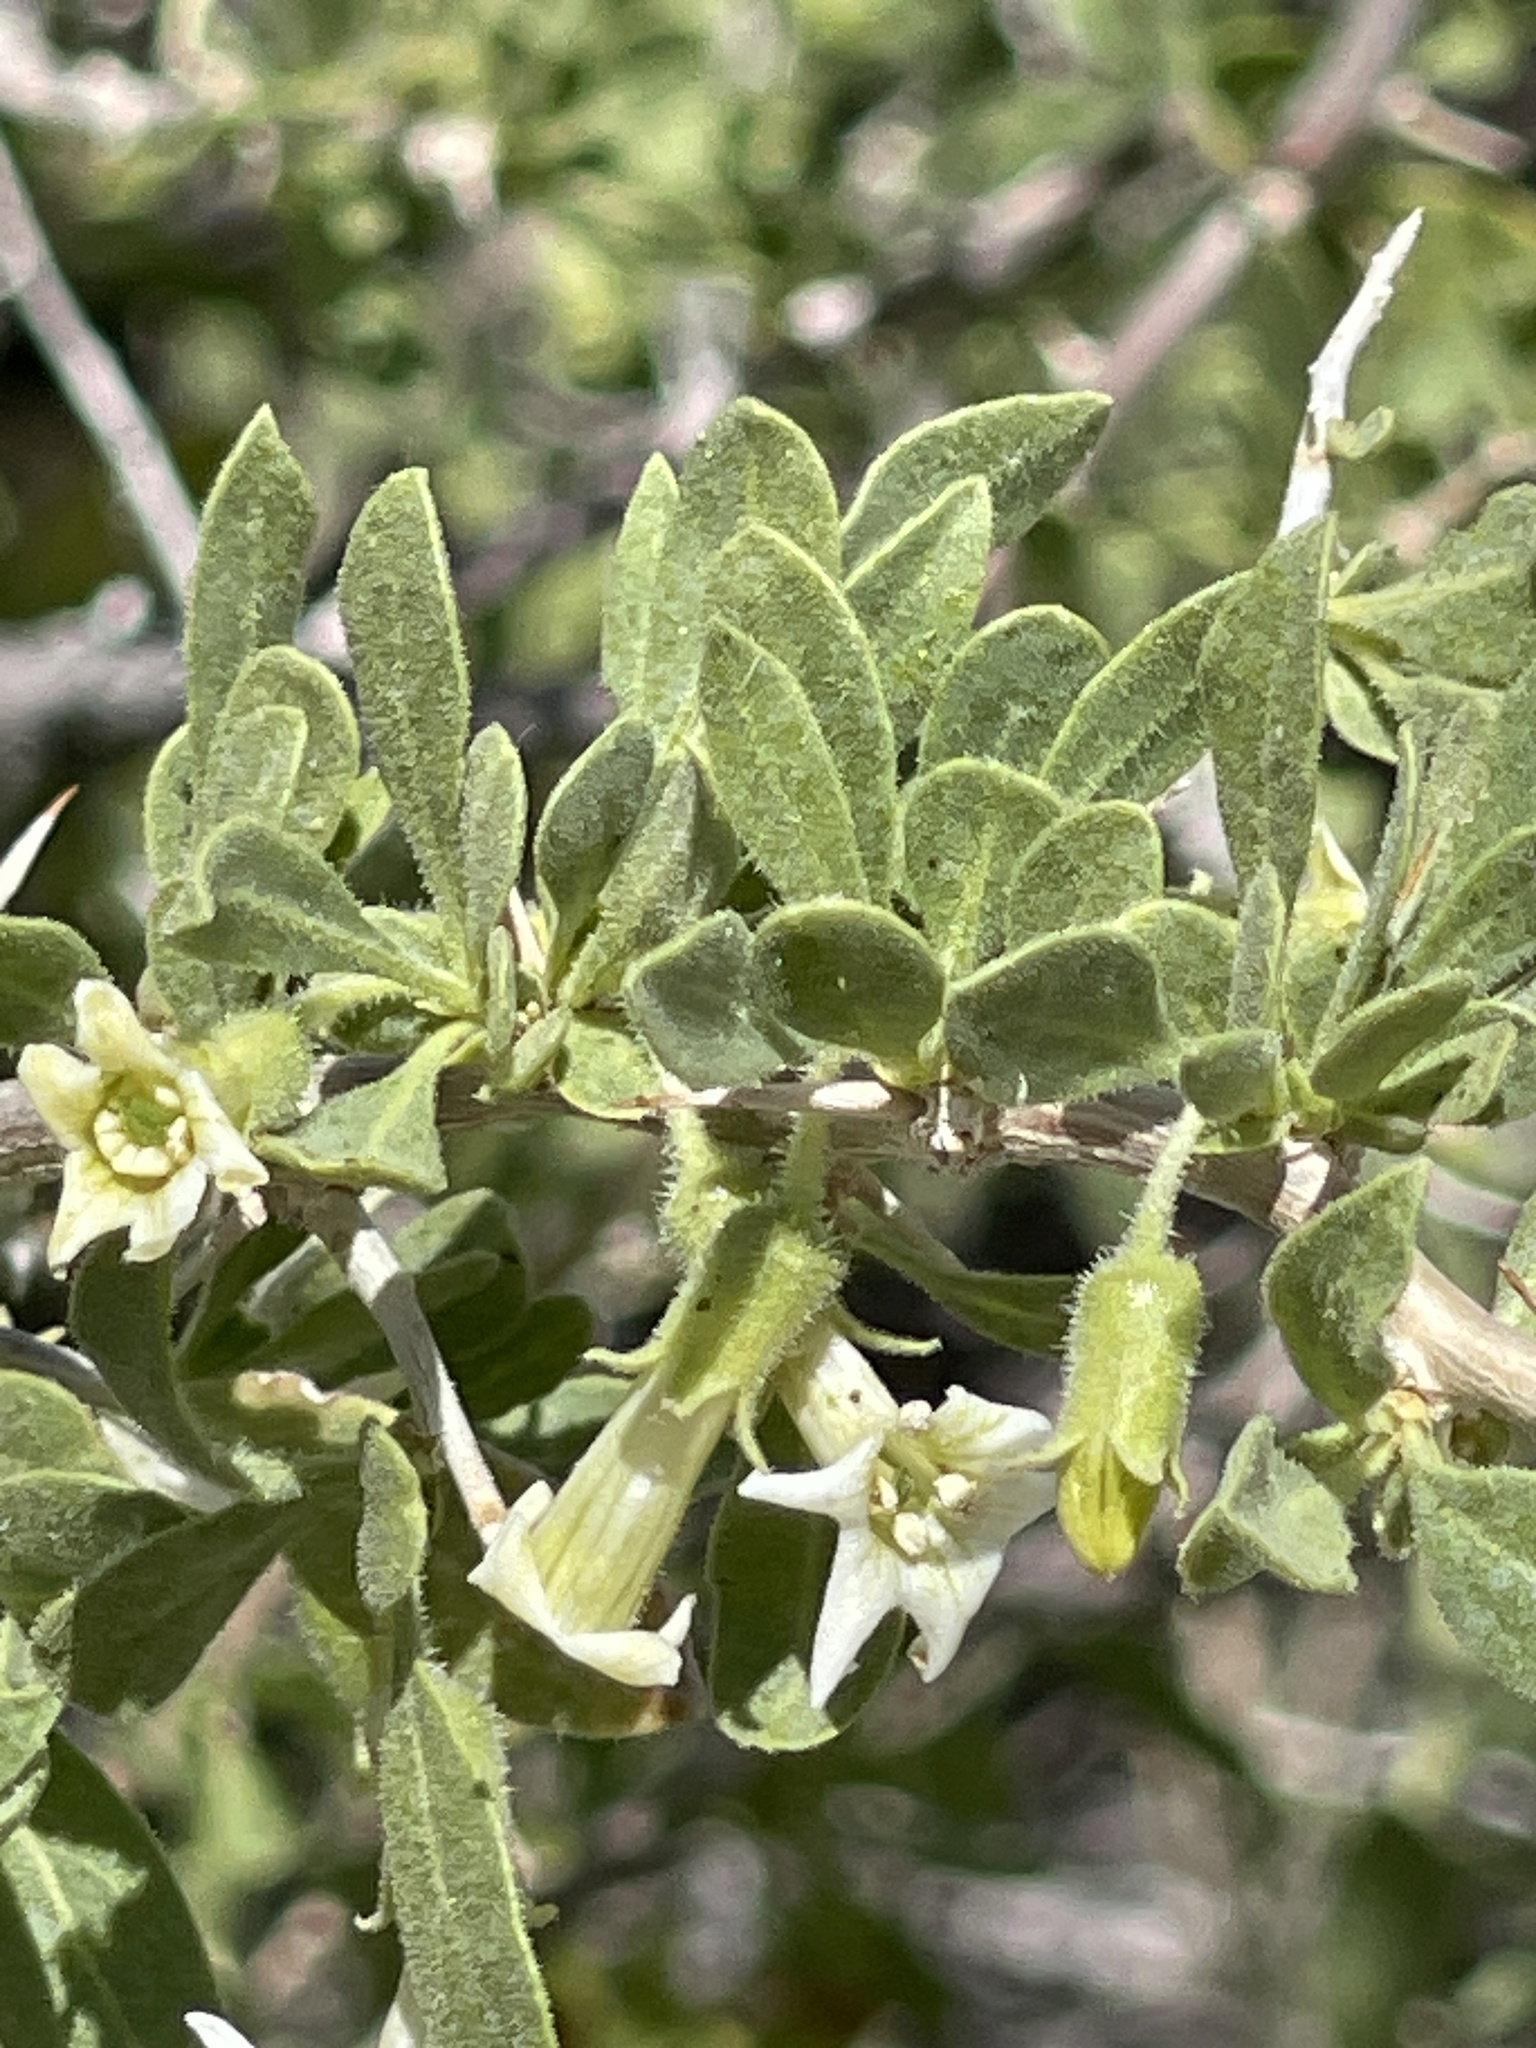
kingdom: Plantae
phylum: Tracheophyta
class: Magnoliopsida
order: Solanales
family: Solanaceae
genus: Lycium
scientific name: Lycium cooperi
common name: Peachthorn
